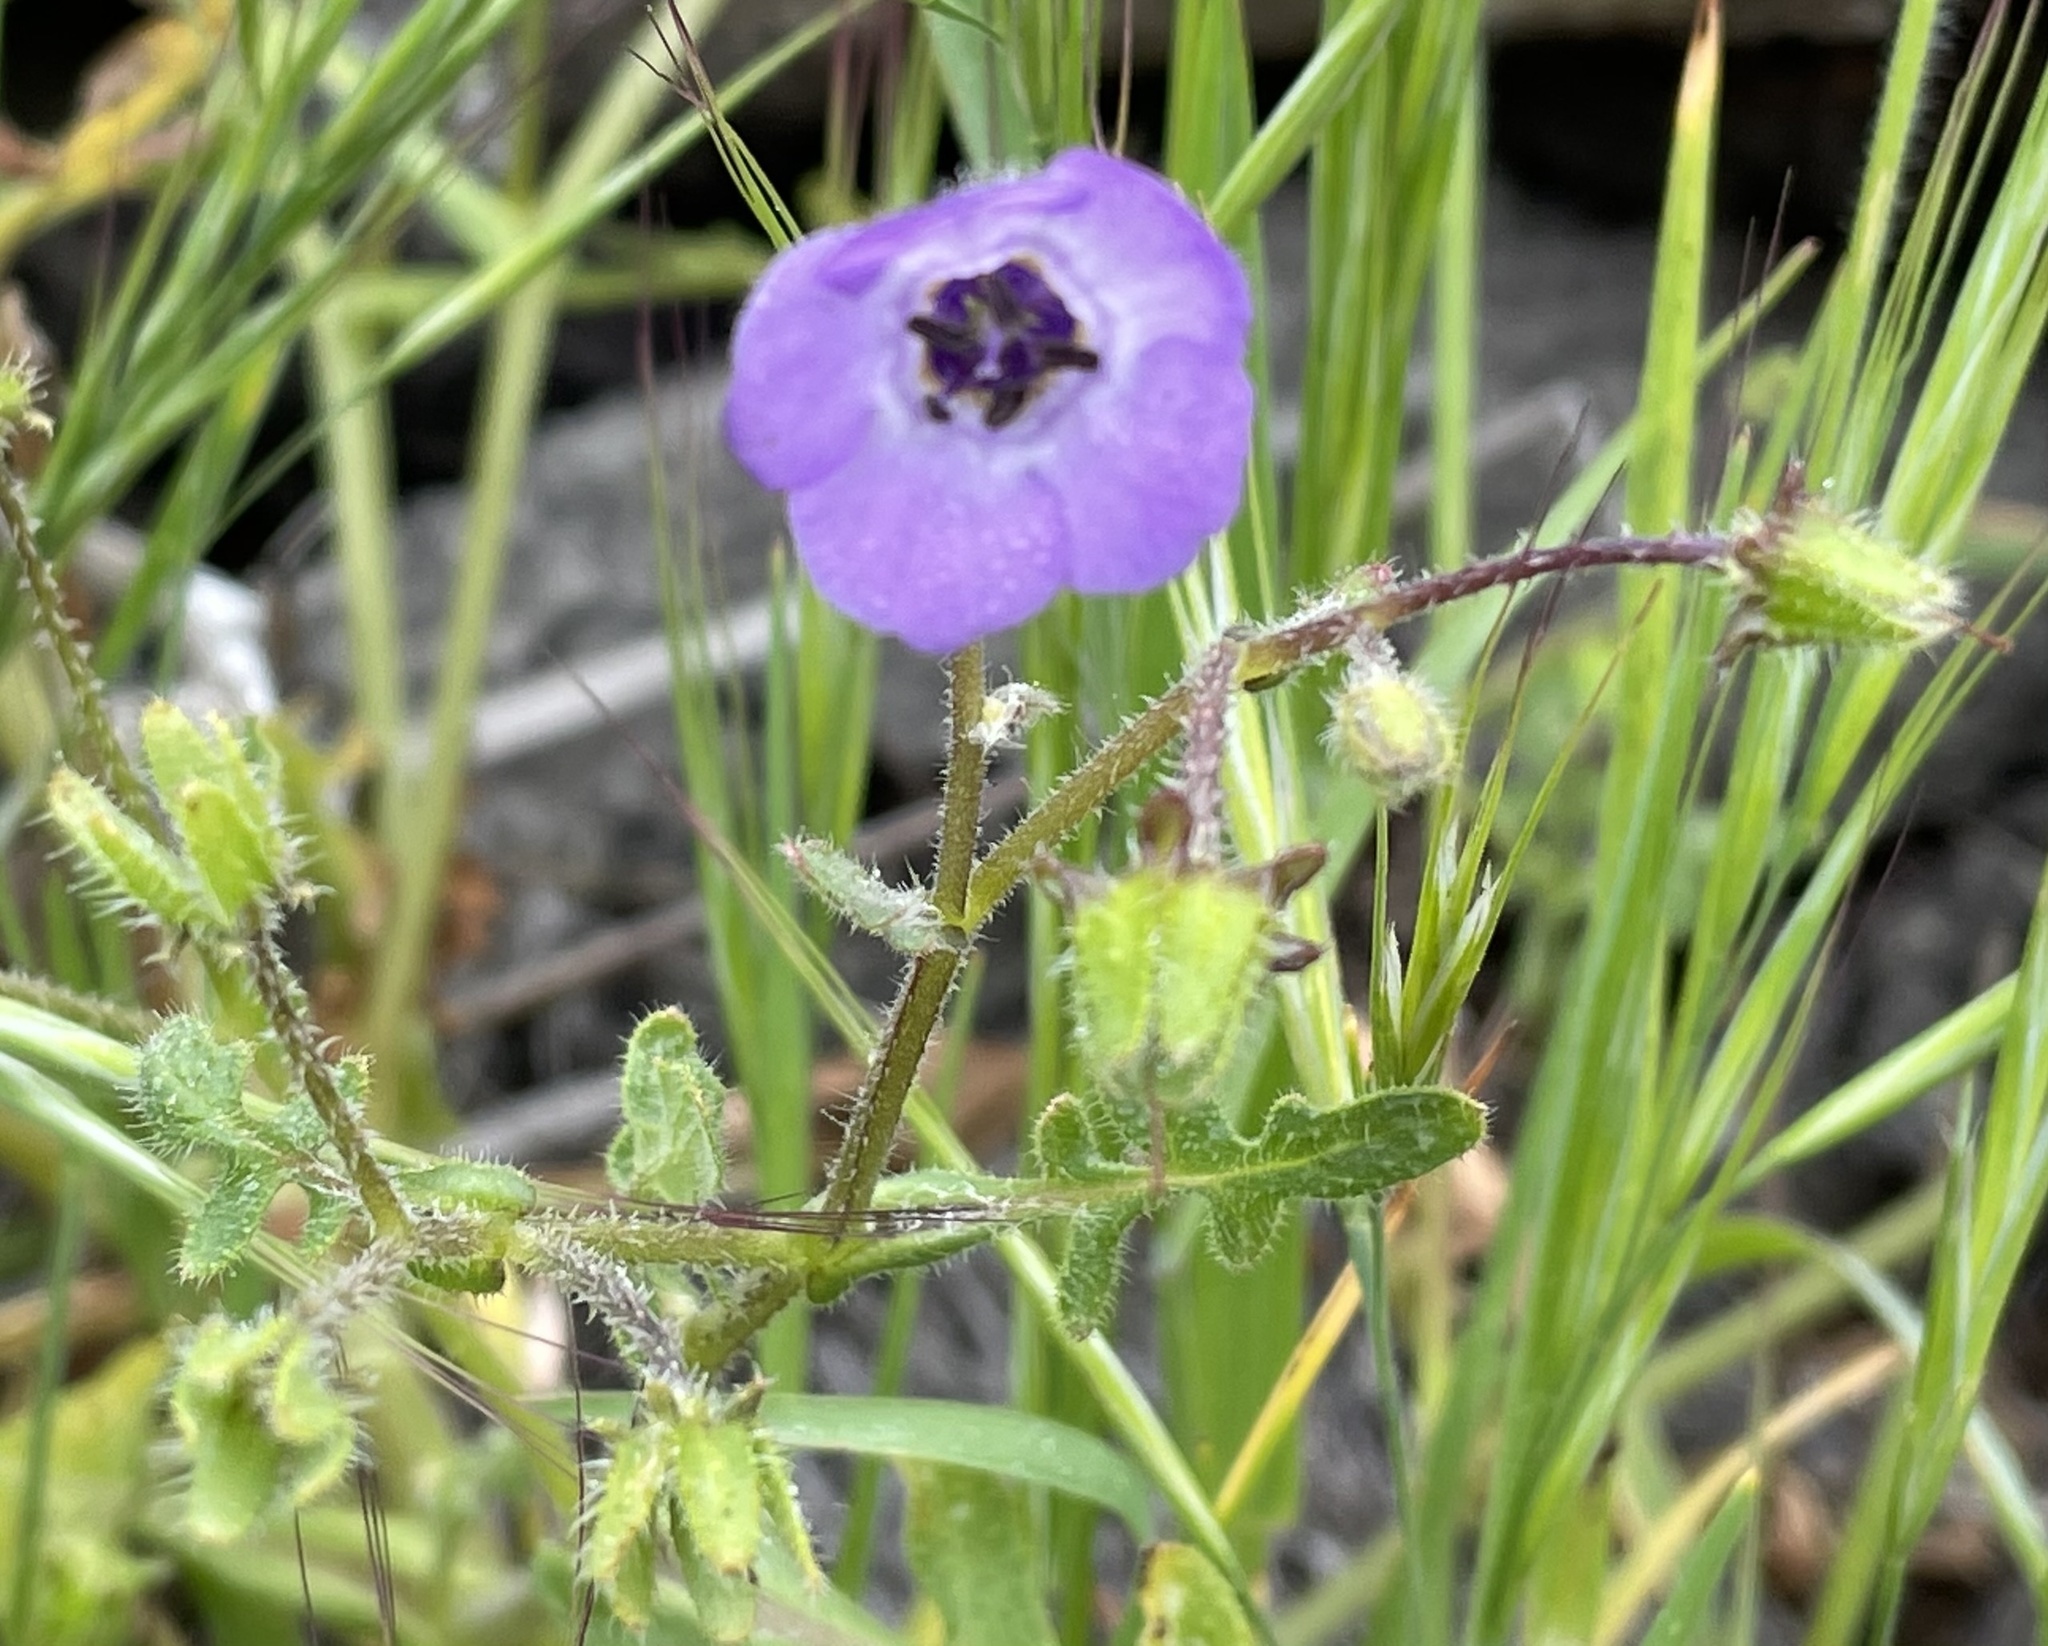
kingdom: Plantae
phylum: Tracheophyta
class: Magnoliopsida
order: Boraginales
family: Hydrophyllaceae
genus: Pholistoma
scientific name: Pholistoma auritum
